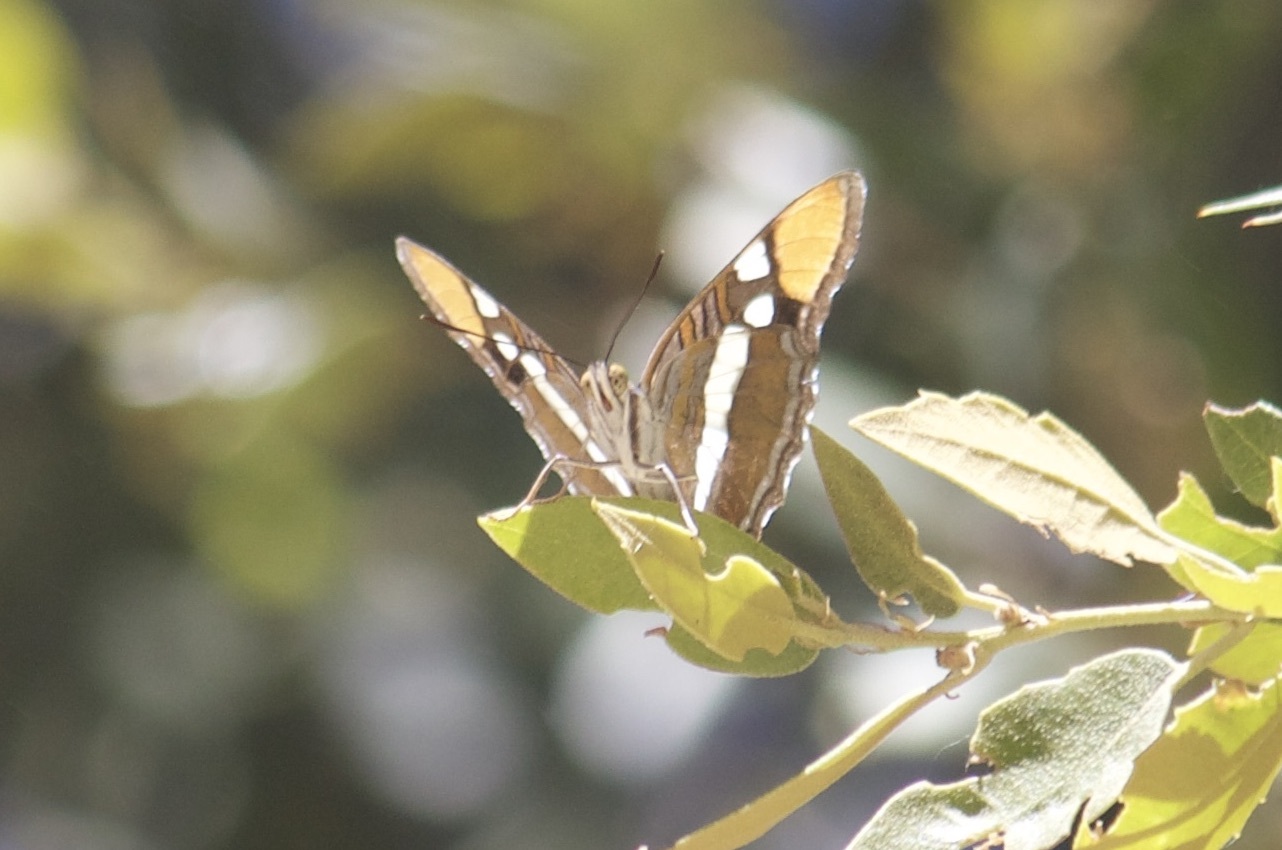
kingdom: Animalia
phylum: Arthropoda
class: Insecta
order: Lepidoptera
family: Nymphalidae
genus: Limenitis
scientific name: Limenitis bredowii
